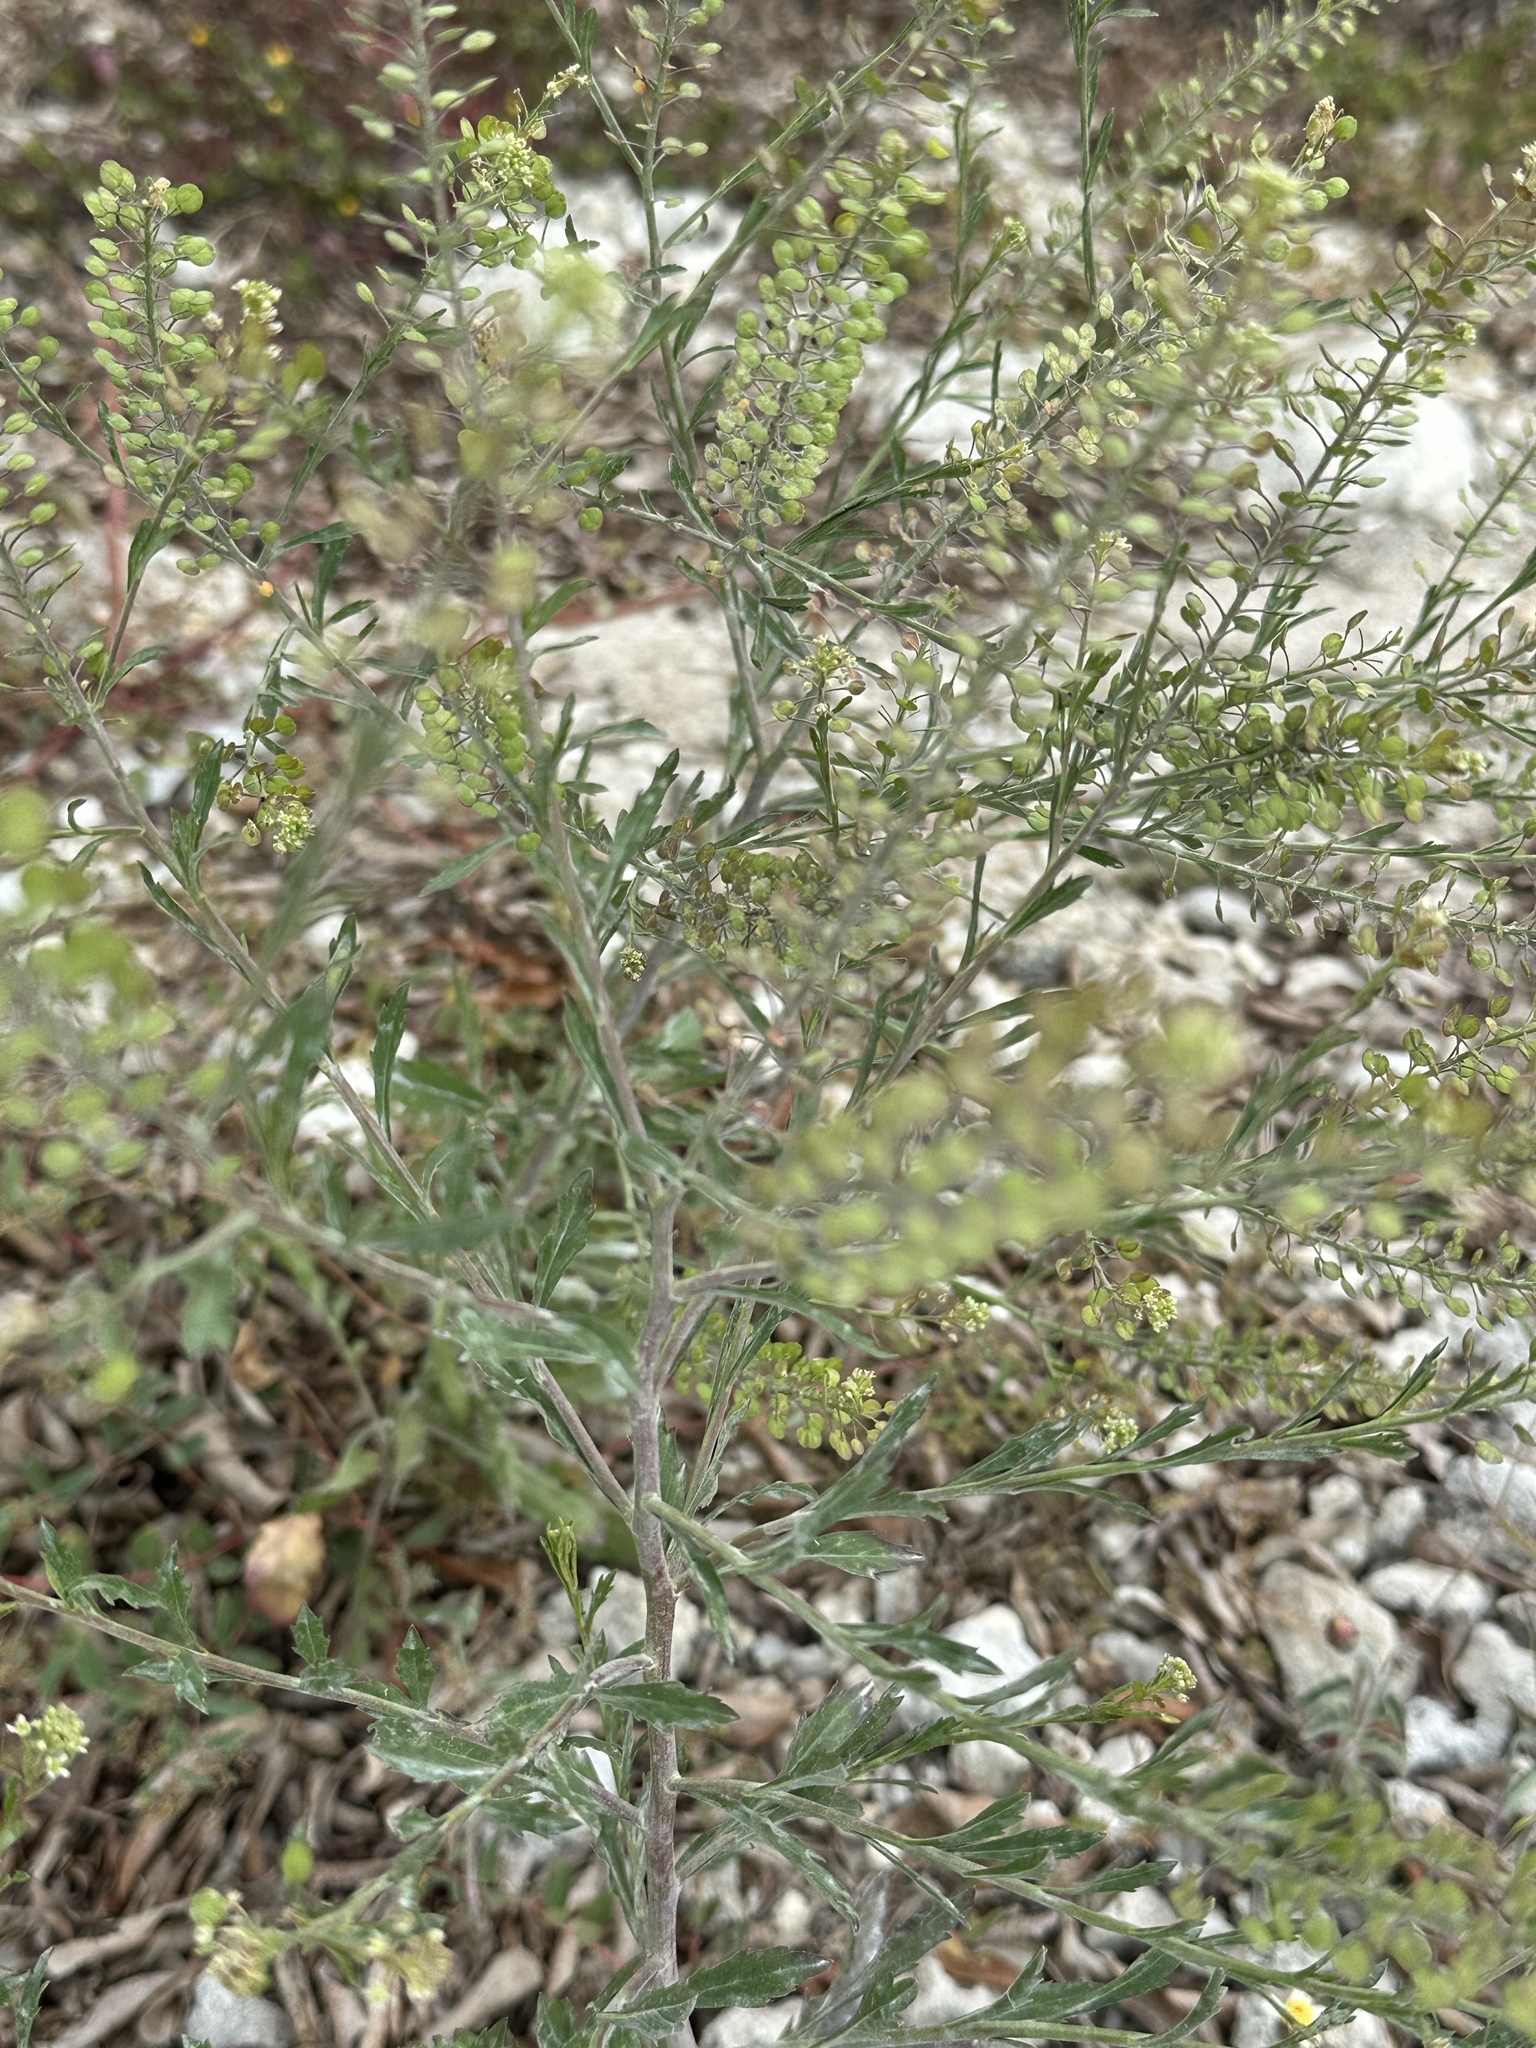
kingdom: Plantae
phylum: Tracheophyta
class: Magnoliopsida
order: Brassicales
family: Brassicaceae
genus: Lepidium
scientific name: Lepidium virginicum
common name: Least pepperwort
